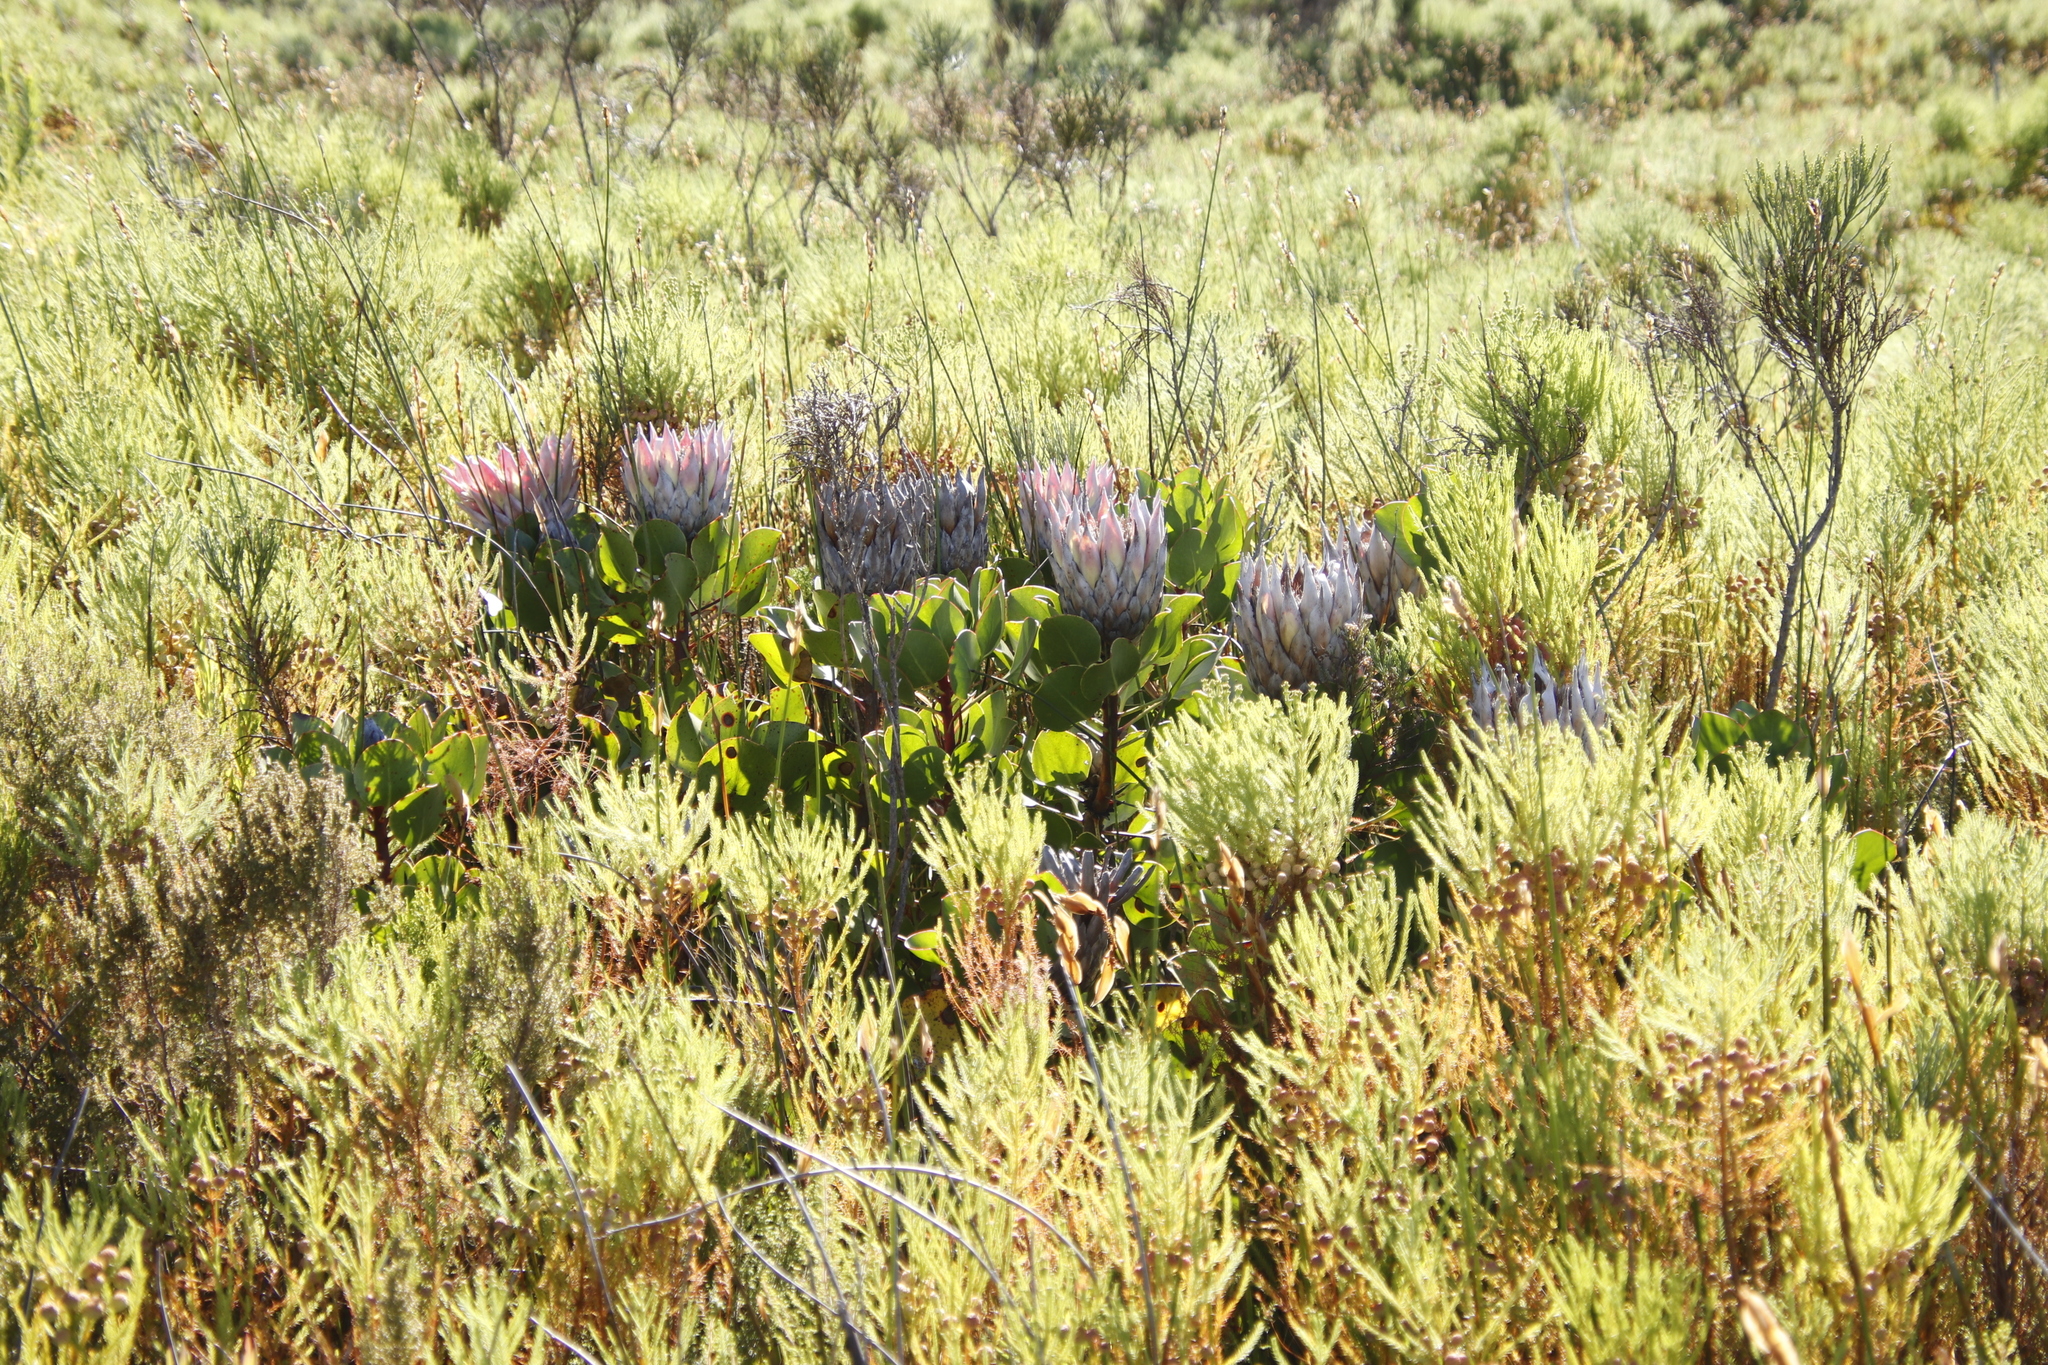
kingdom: Plantae
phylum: Tracheophyta
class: Magnoliopsida
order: Proteales
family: Proteaceae
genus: Protea
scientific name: Protea cynaroides
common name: King protea
